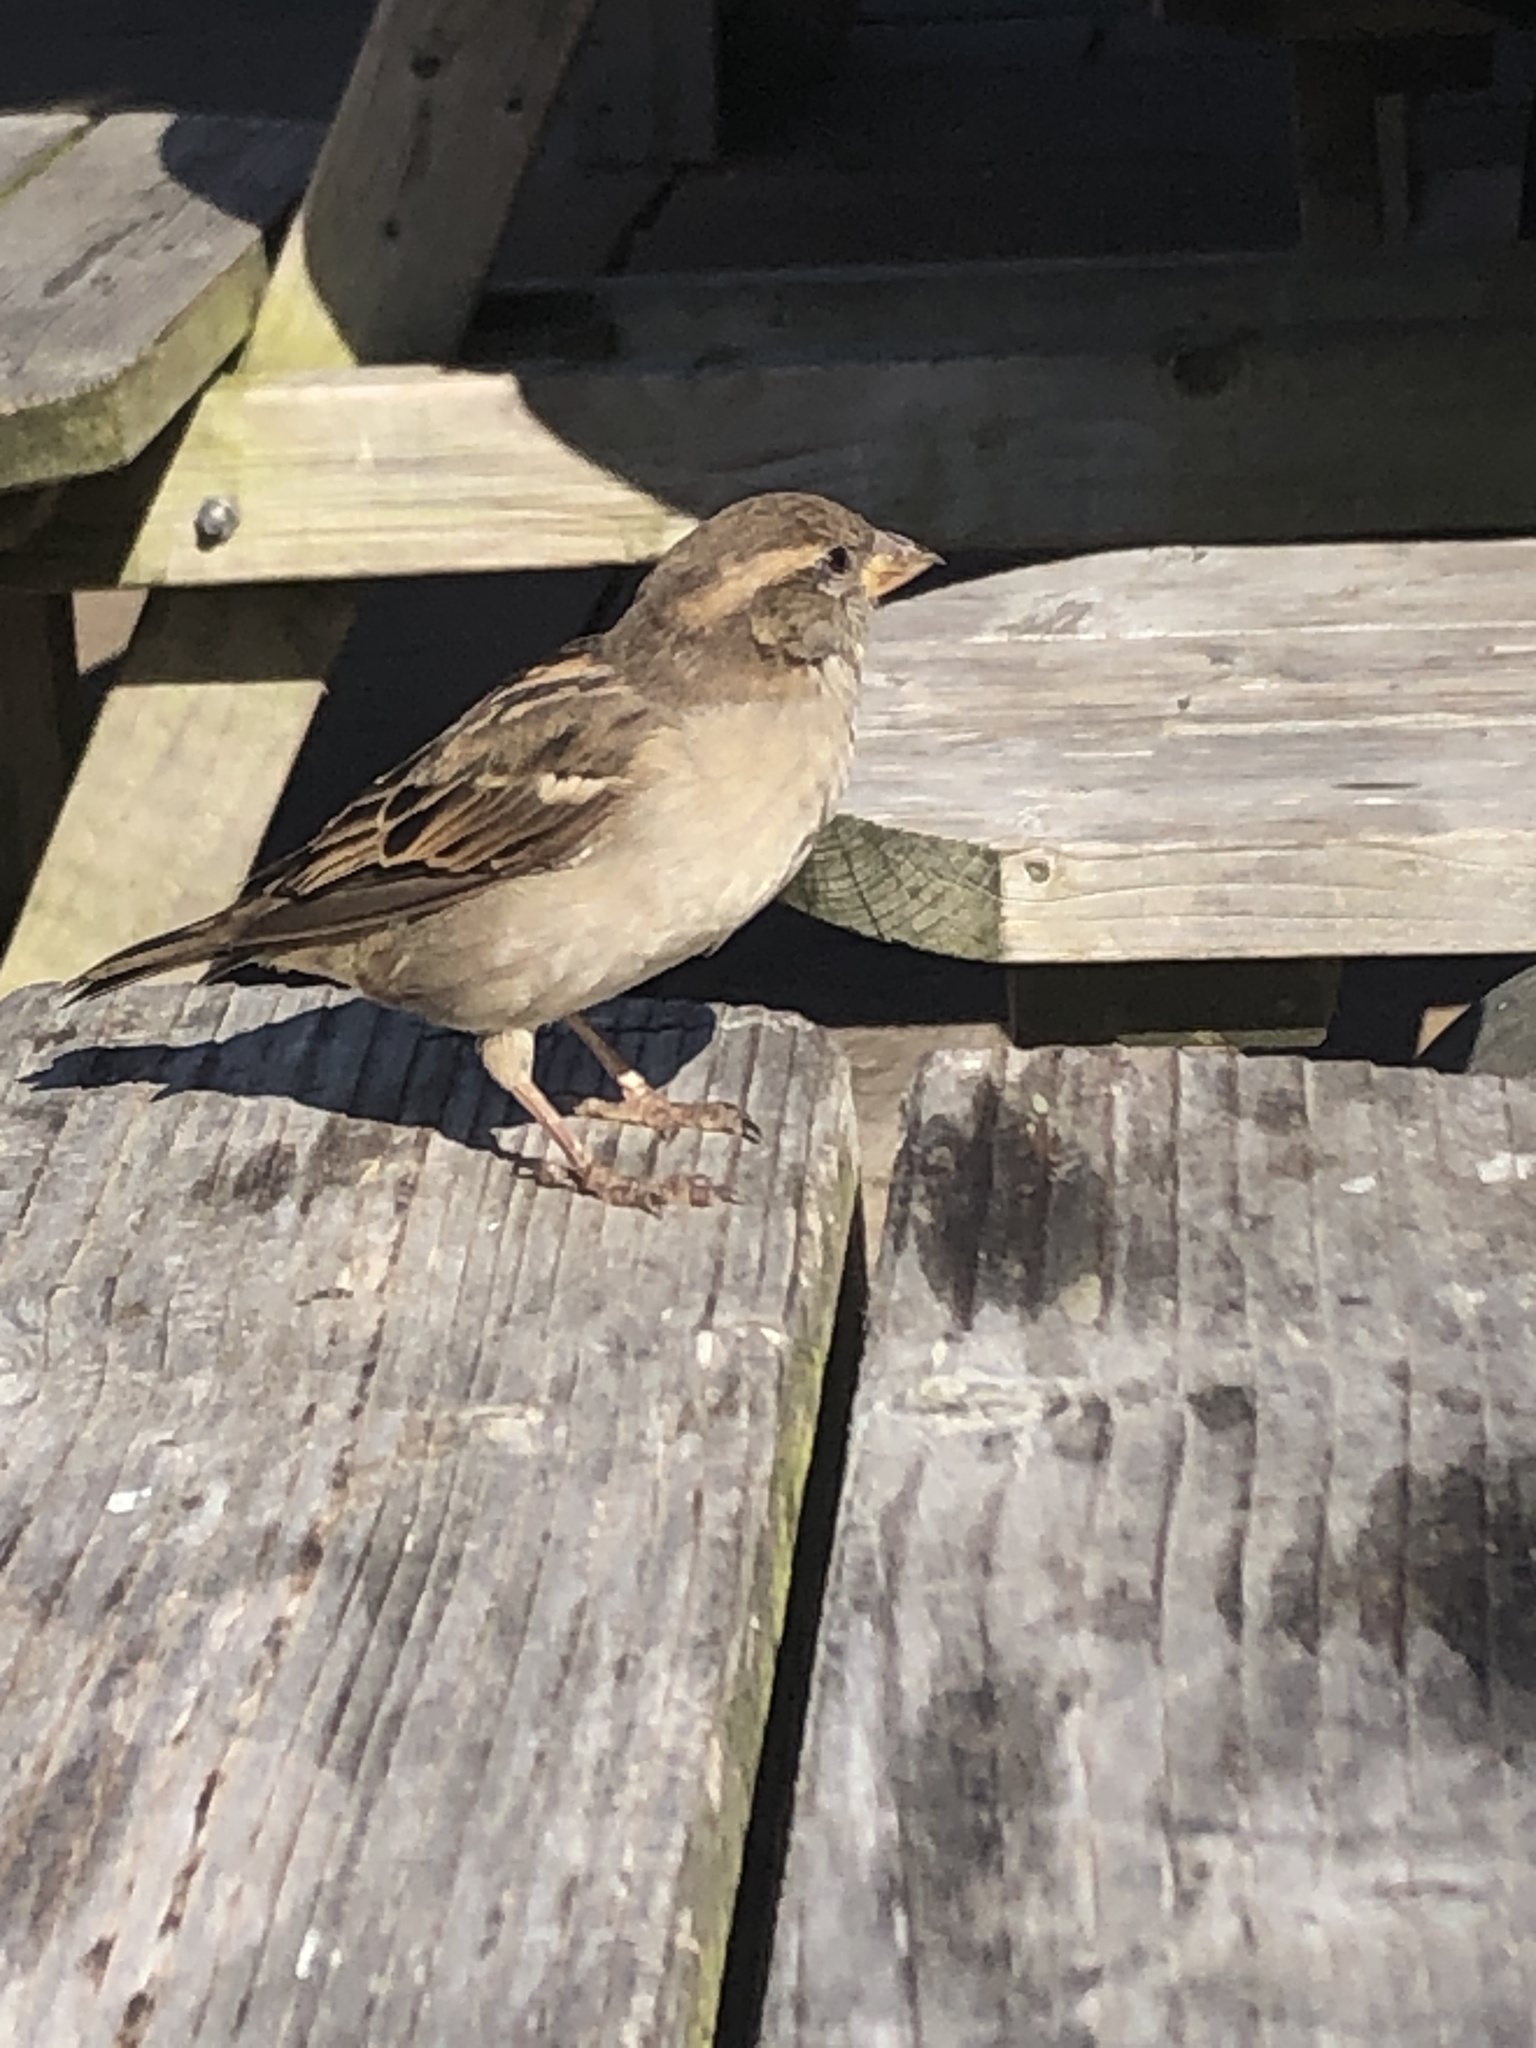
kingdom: Animalia
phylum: Chordata
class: Aves
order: Passeriformes
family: Passeridae
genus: Passer
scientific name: Passer domesticus
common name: House sparrow
